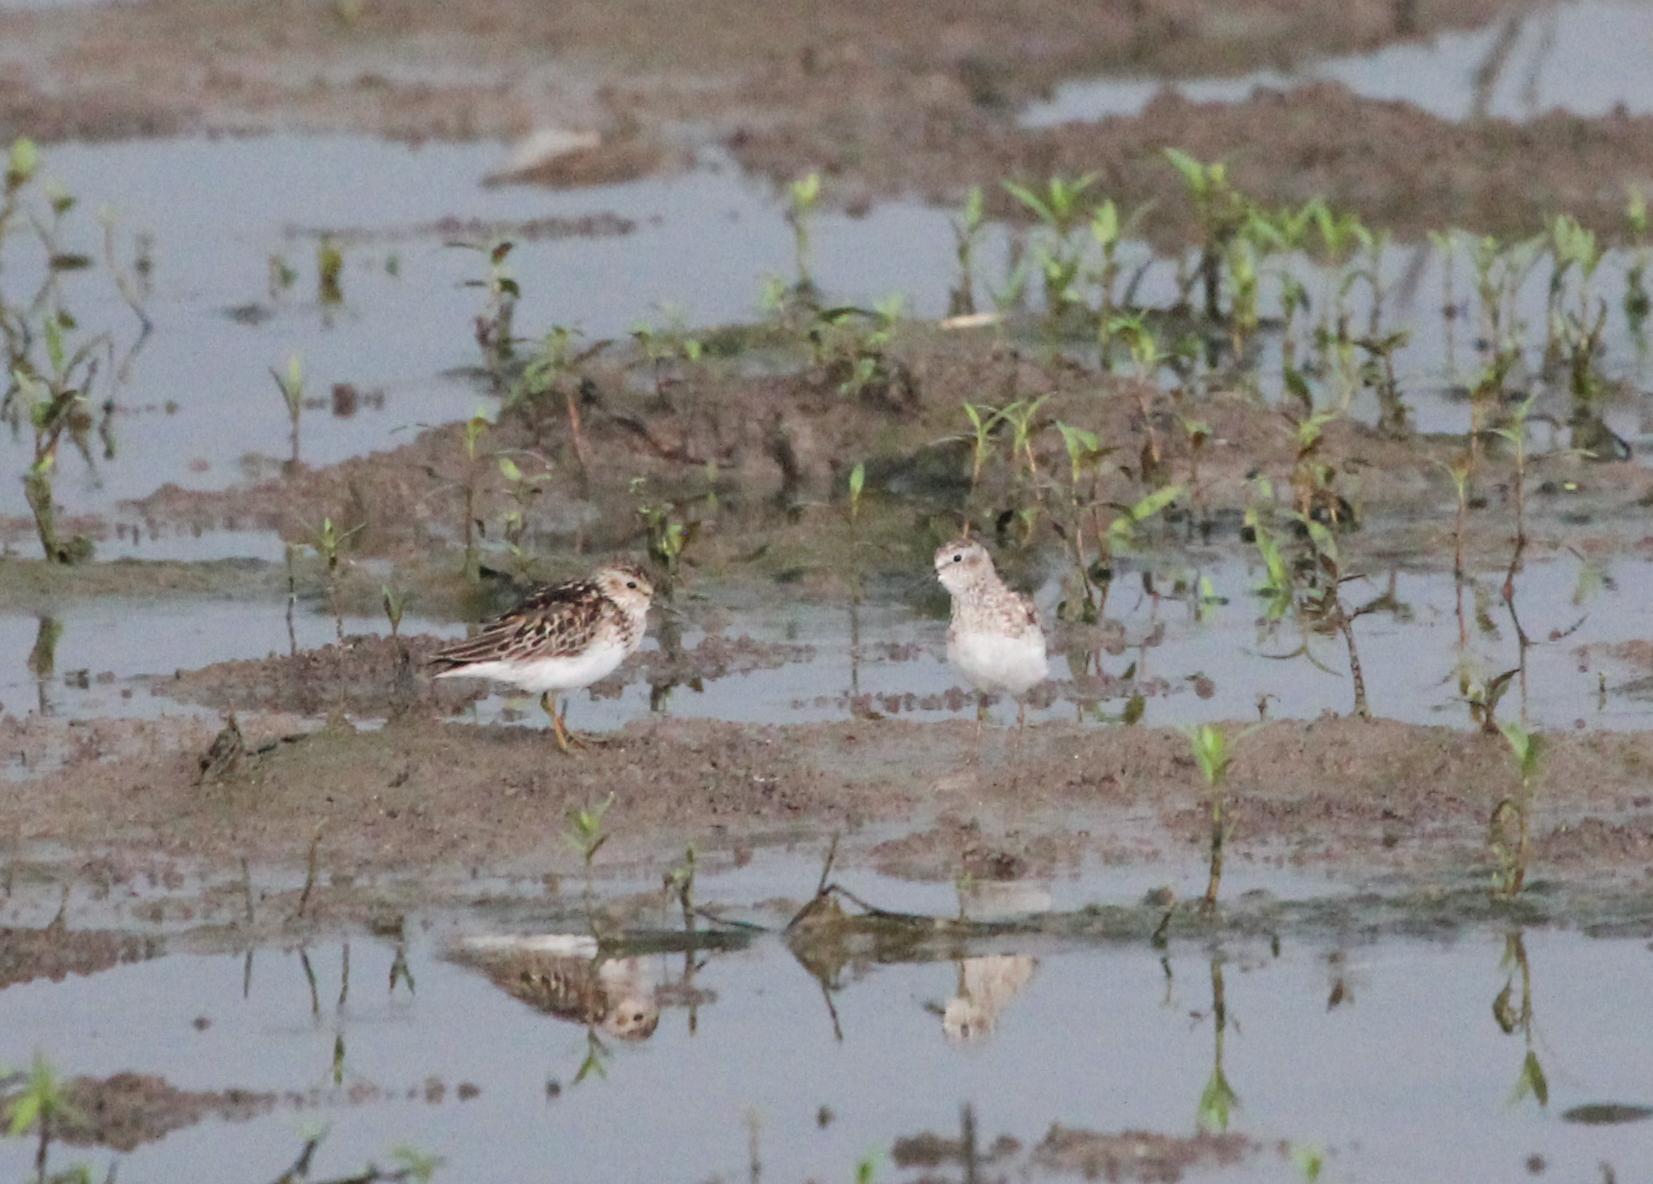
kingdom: Animalia
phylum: Chordata
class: Aves
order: Charadriiformes
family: Scolopacidae
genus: Calidris
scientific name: Calidris minutilla
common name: Least sandpiper
